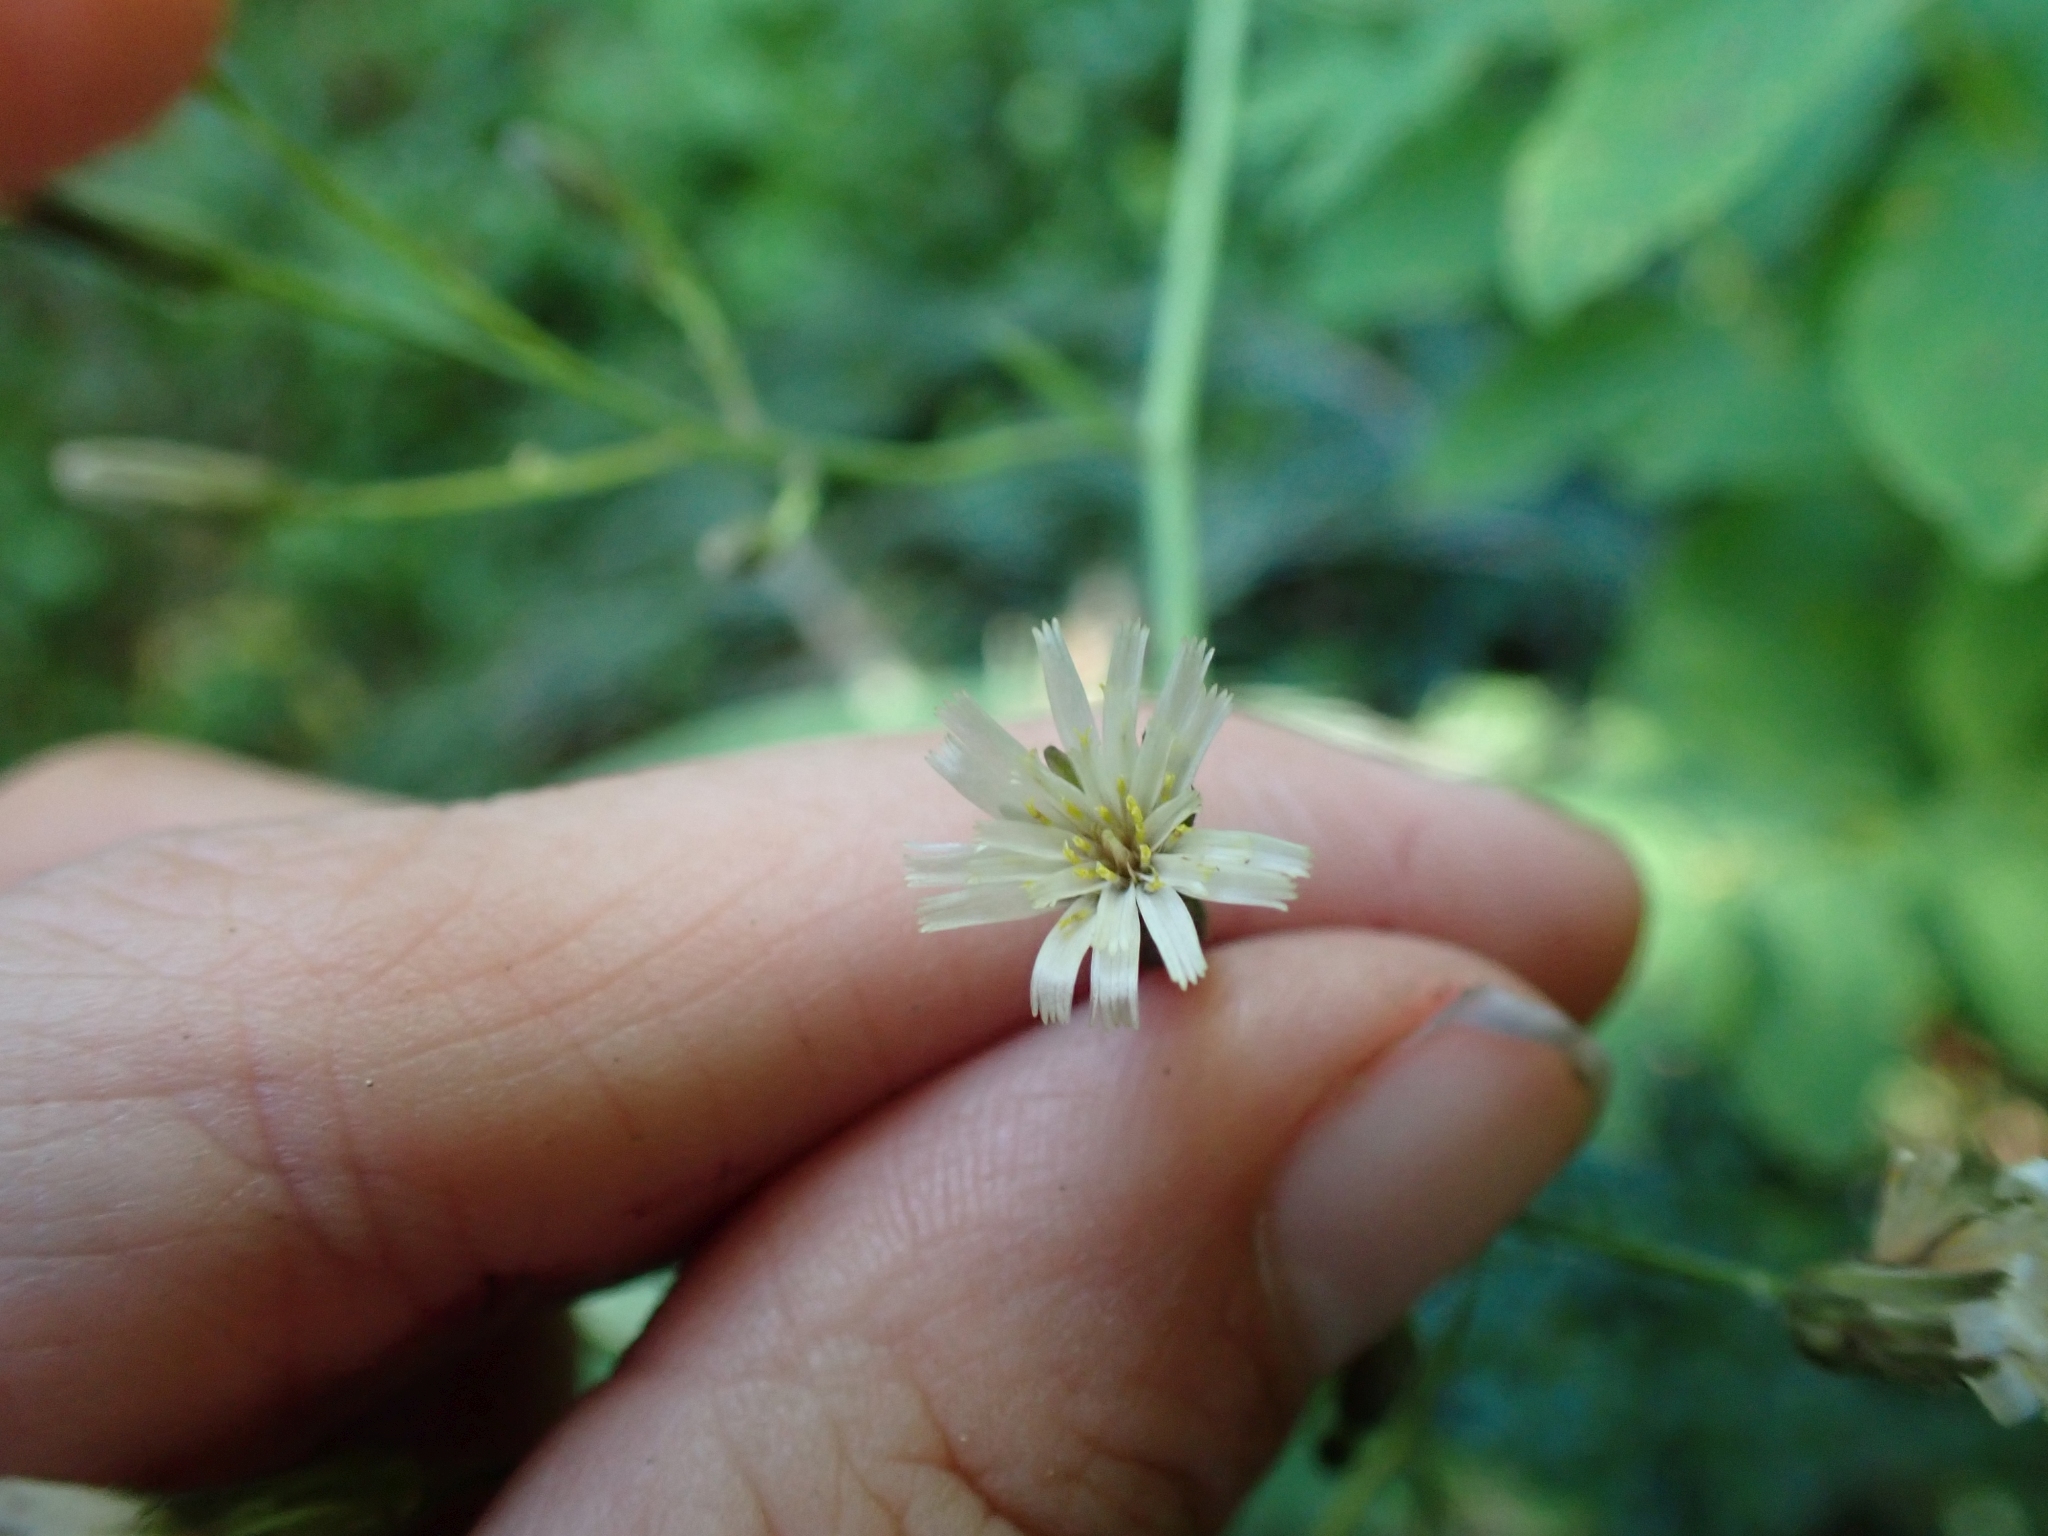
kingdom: Plantae
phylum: Tracheophyta
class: Magnoliopsida
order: Asterales
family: Asteraceae
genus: Hieracium
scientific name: Hieracium albiflorum
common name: White hawkweed
